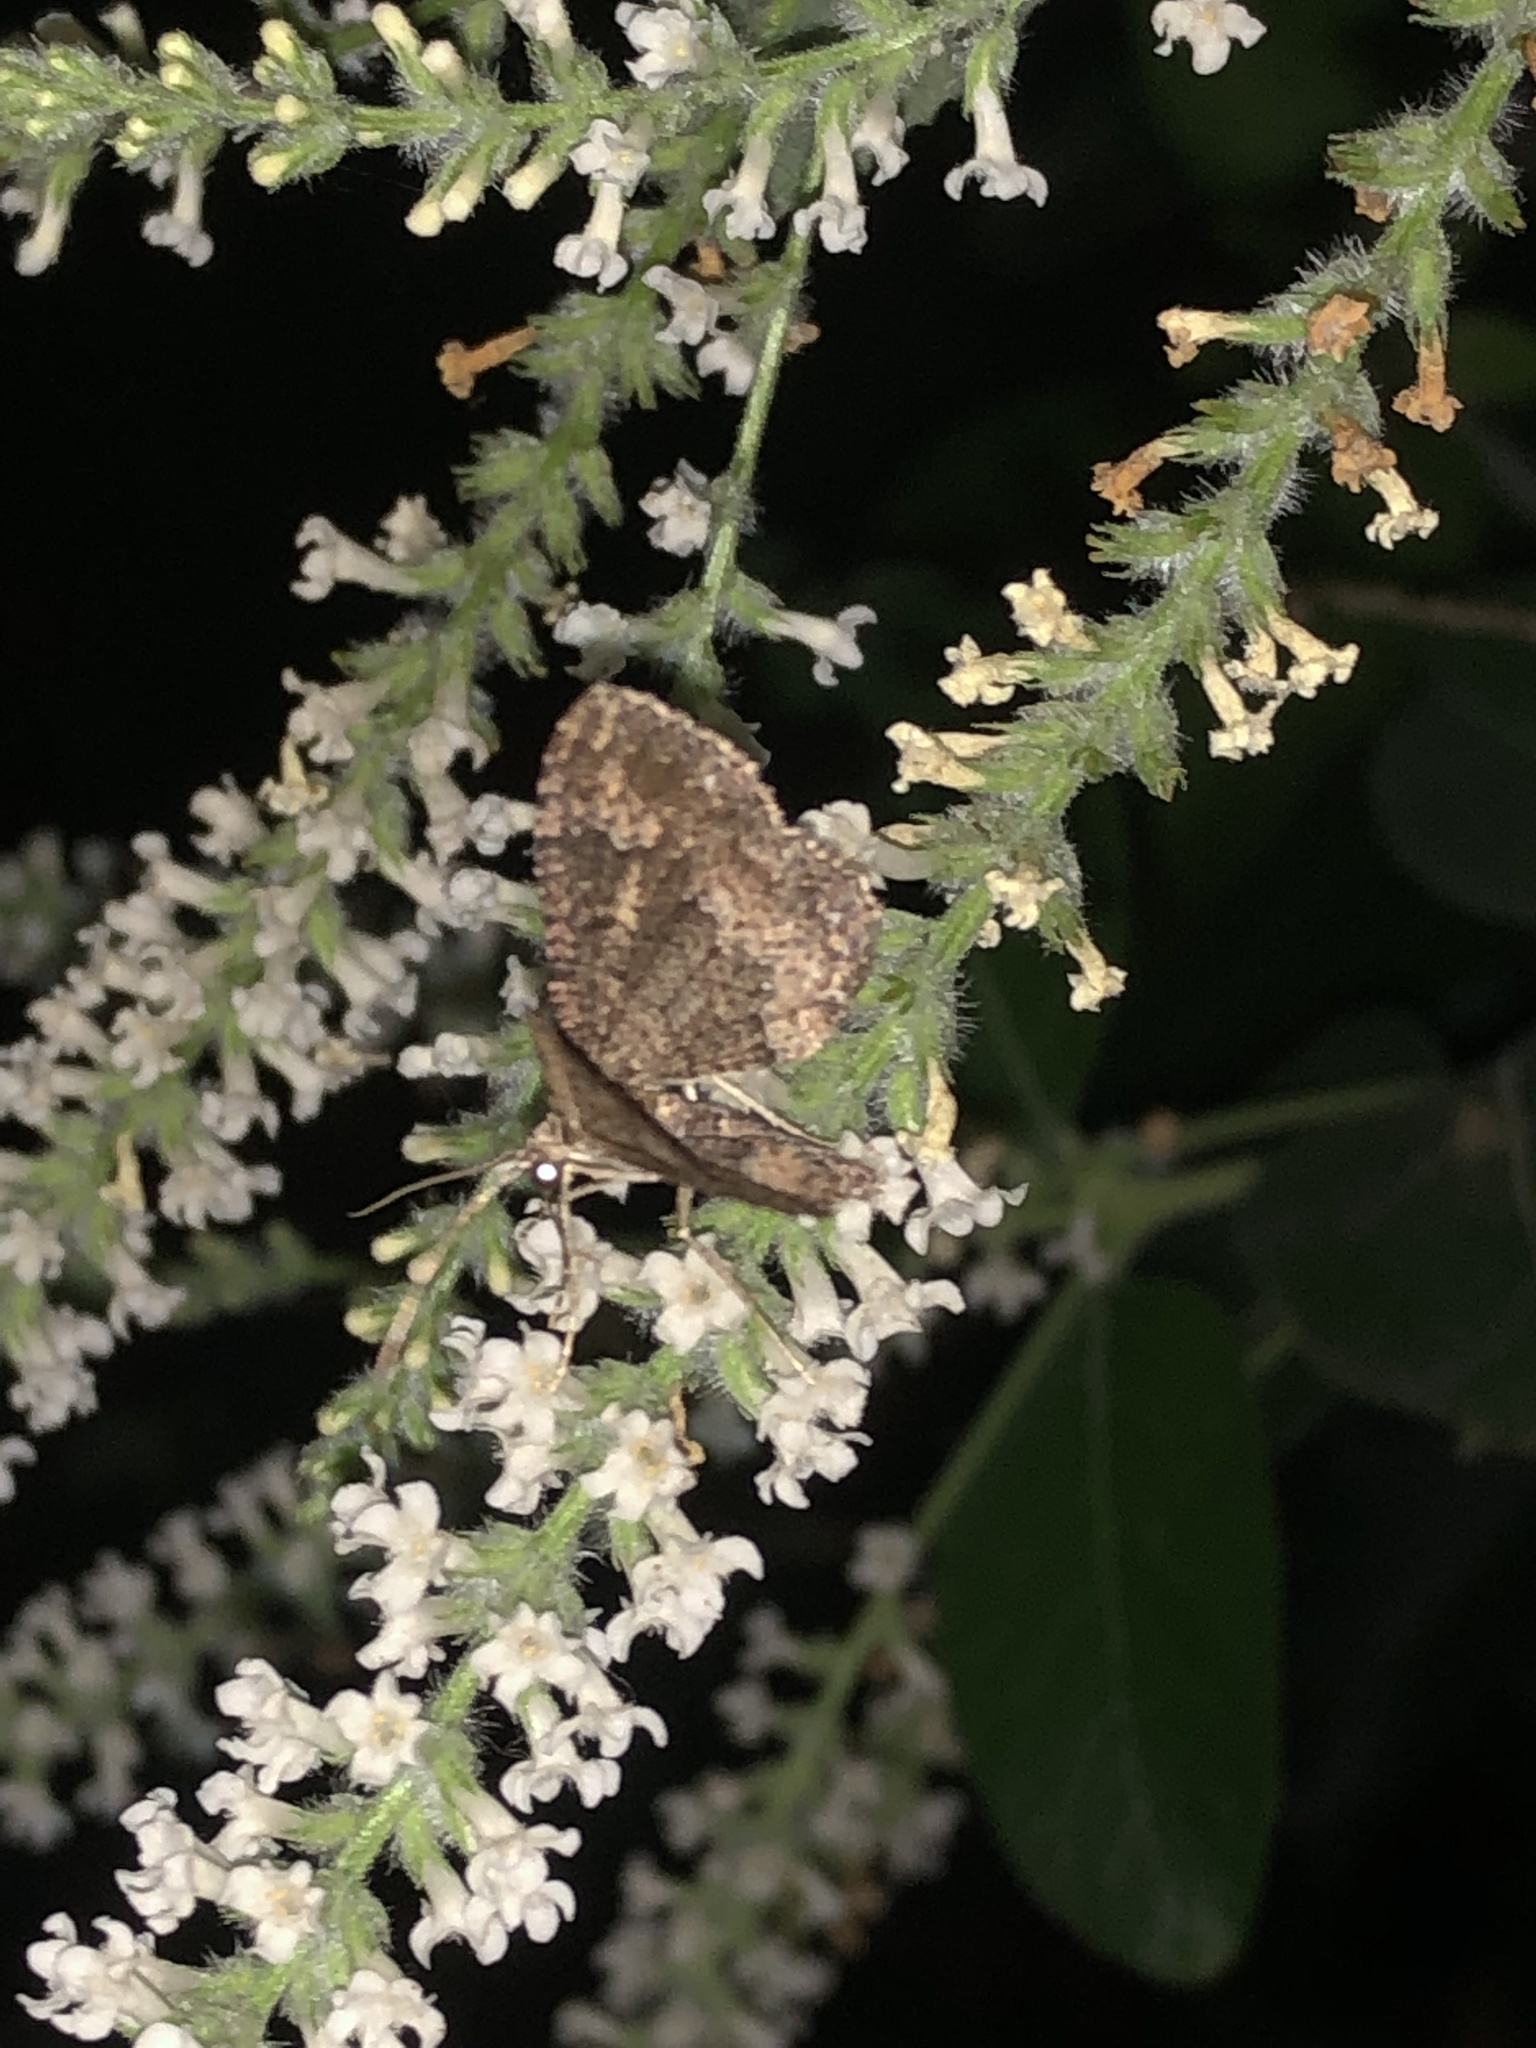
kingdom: Animalia
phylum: Arthropoda
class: Insecta
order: Lepidoptera
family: Geometridae
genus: Disclisioprocta
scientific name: Disclisioprocta stellata
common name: Somber carpet
